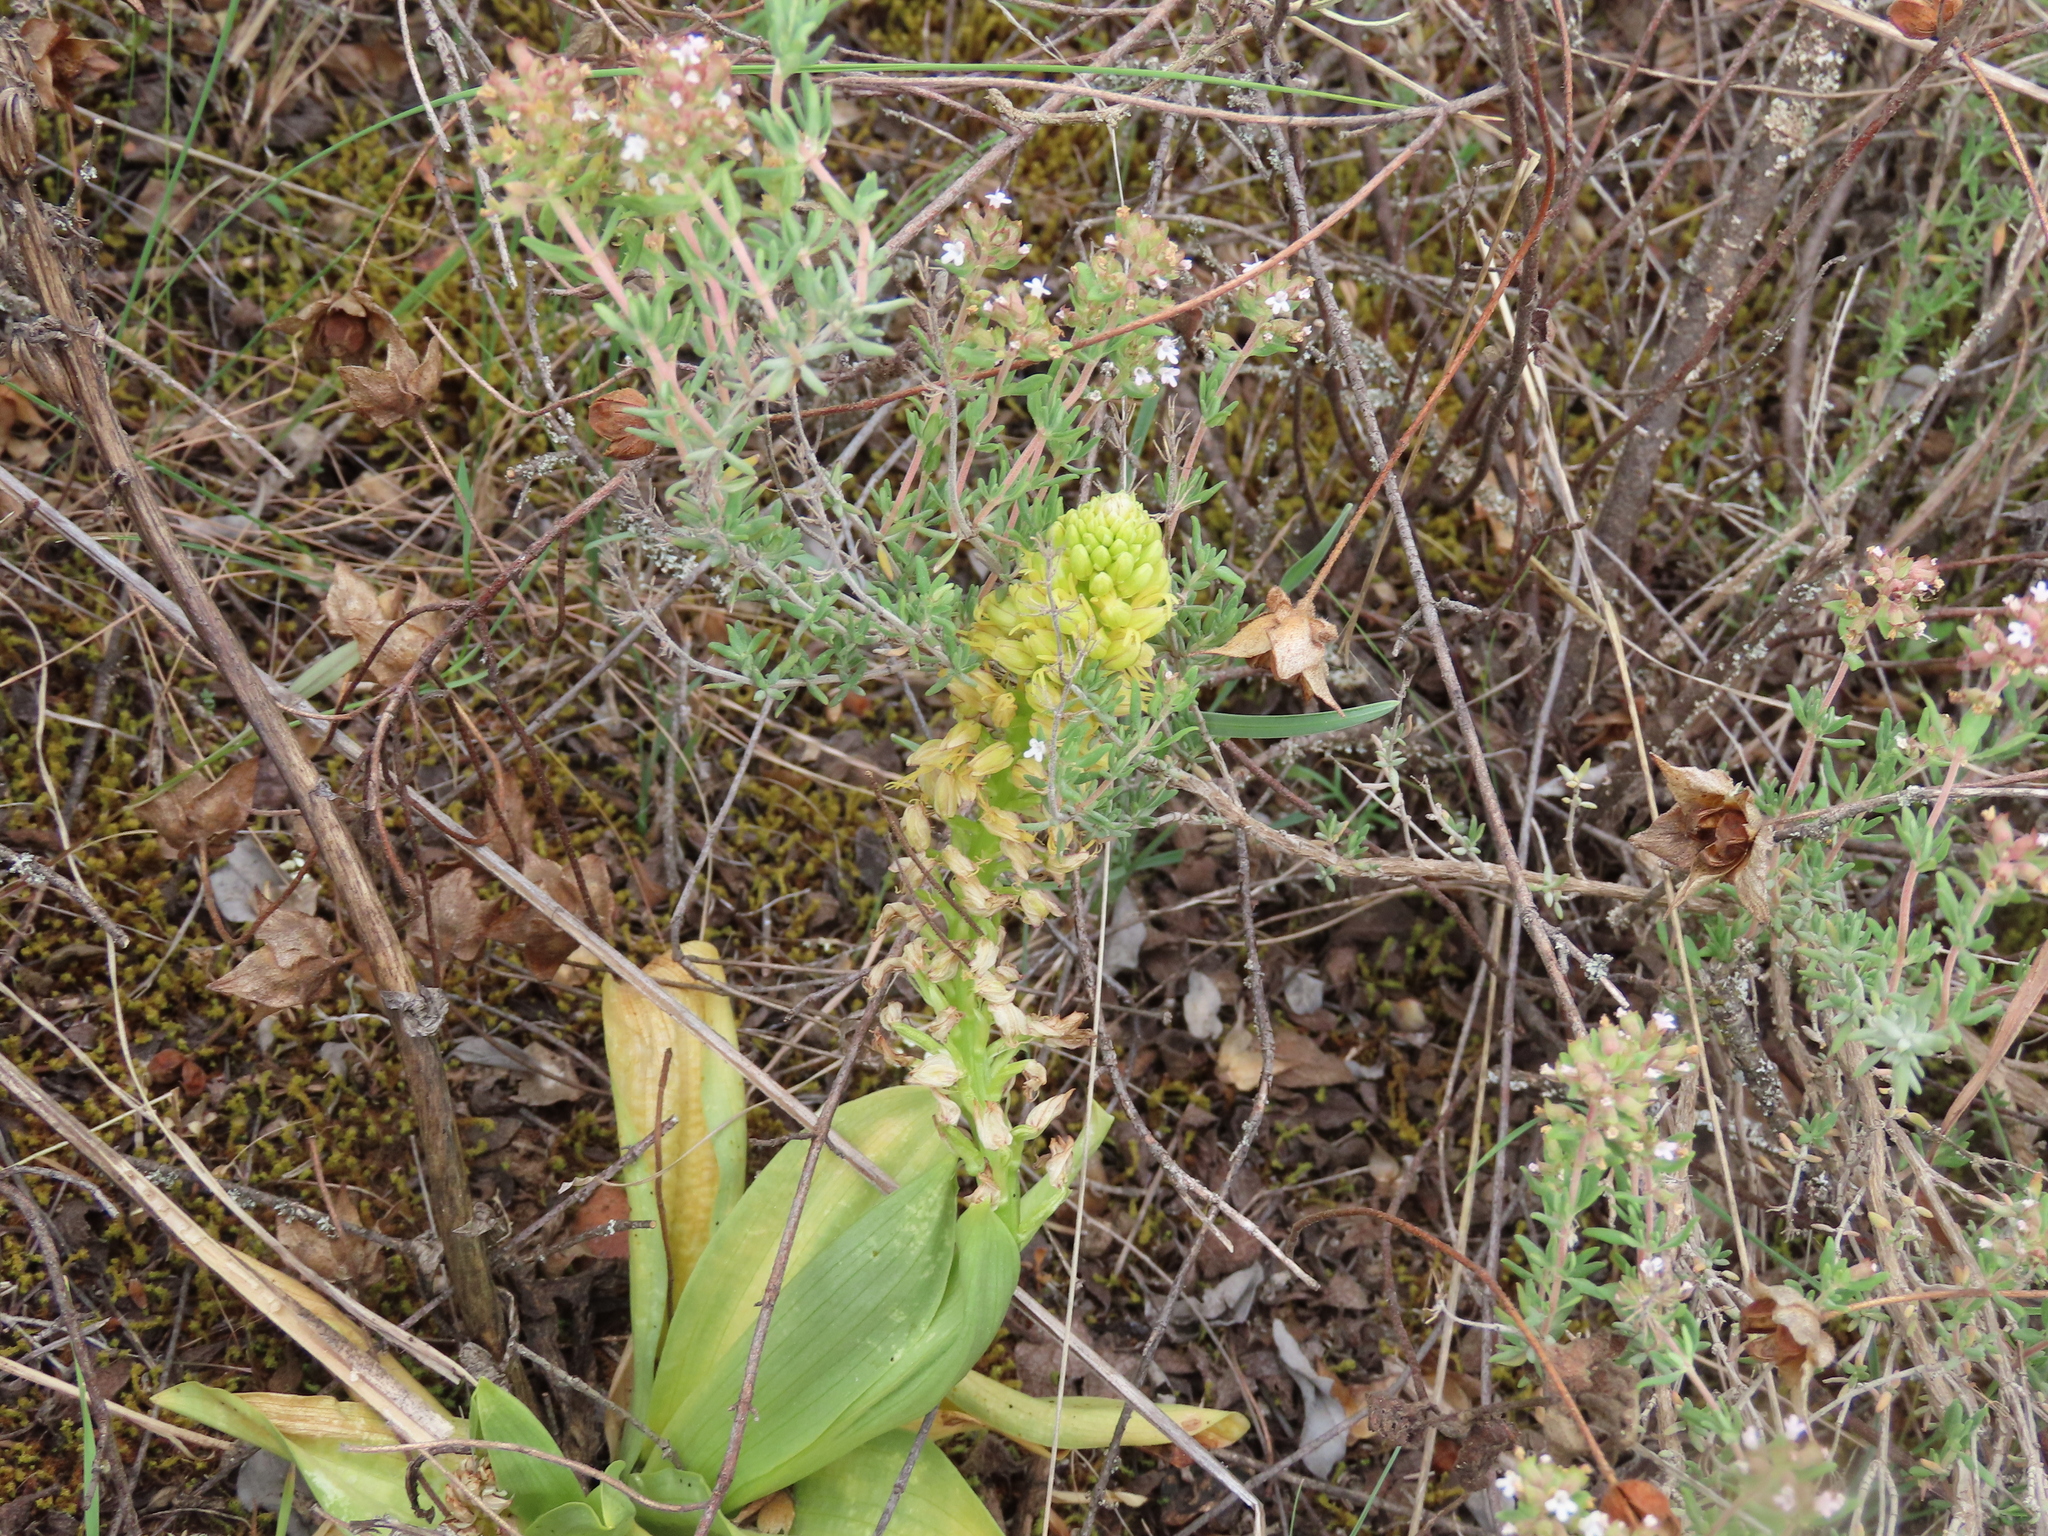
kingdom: Plantae
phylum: Tracheophyta
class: Liliopsida
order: Asparagales
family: Orchidaceae
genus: Orchis
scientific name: Orchis anthropophora
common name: Man orchid
